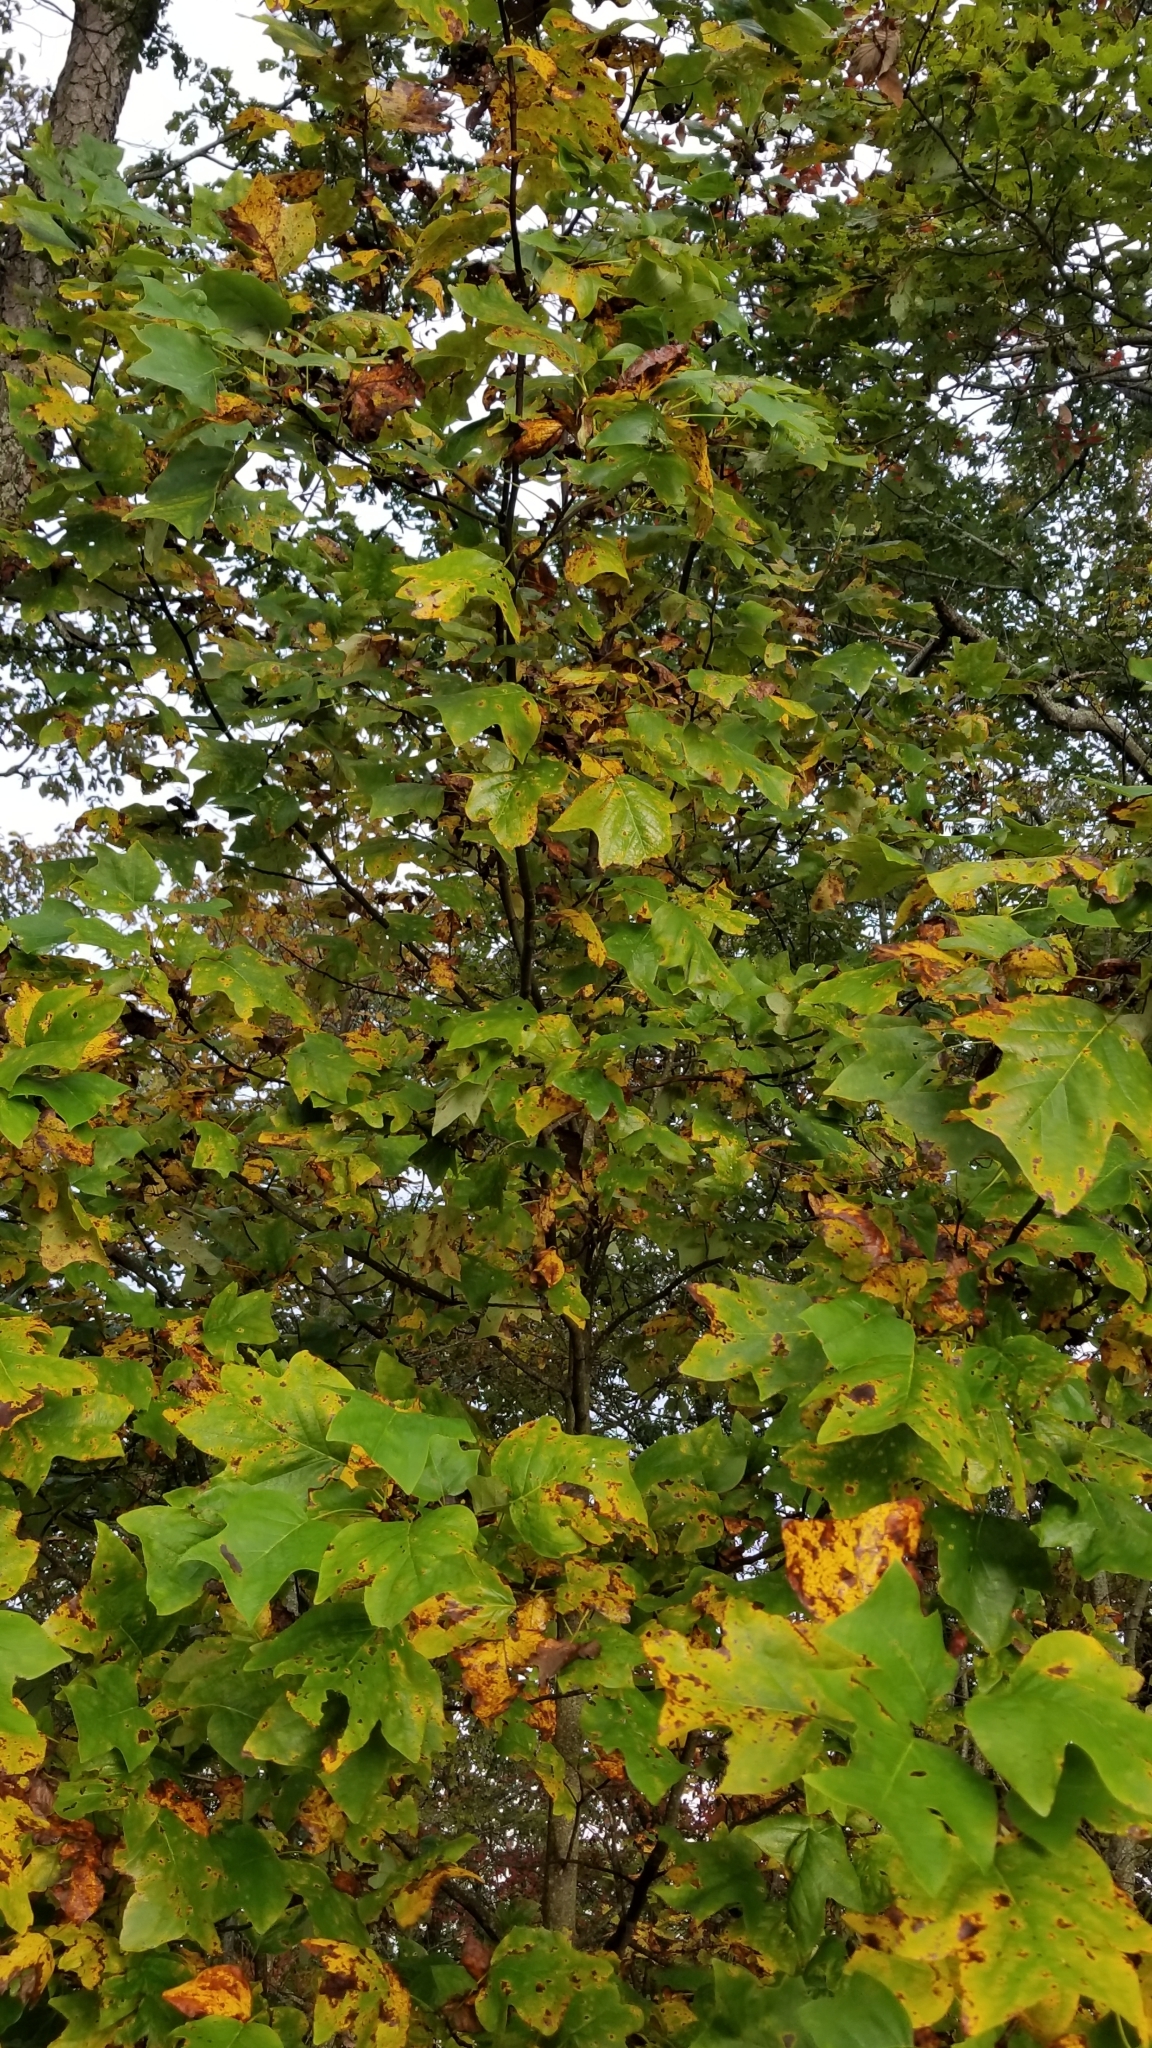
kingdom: Plantae
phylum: Tracheophyta
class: Magnoliopsida
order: Magnoliales
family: Magnoliaceae
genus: Liriodendron
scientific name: Liriodendron tulipifera
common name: Tulip tree
